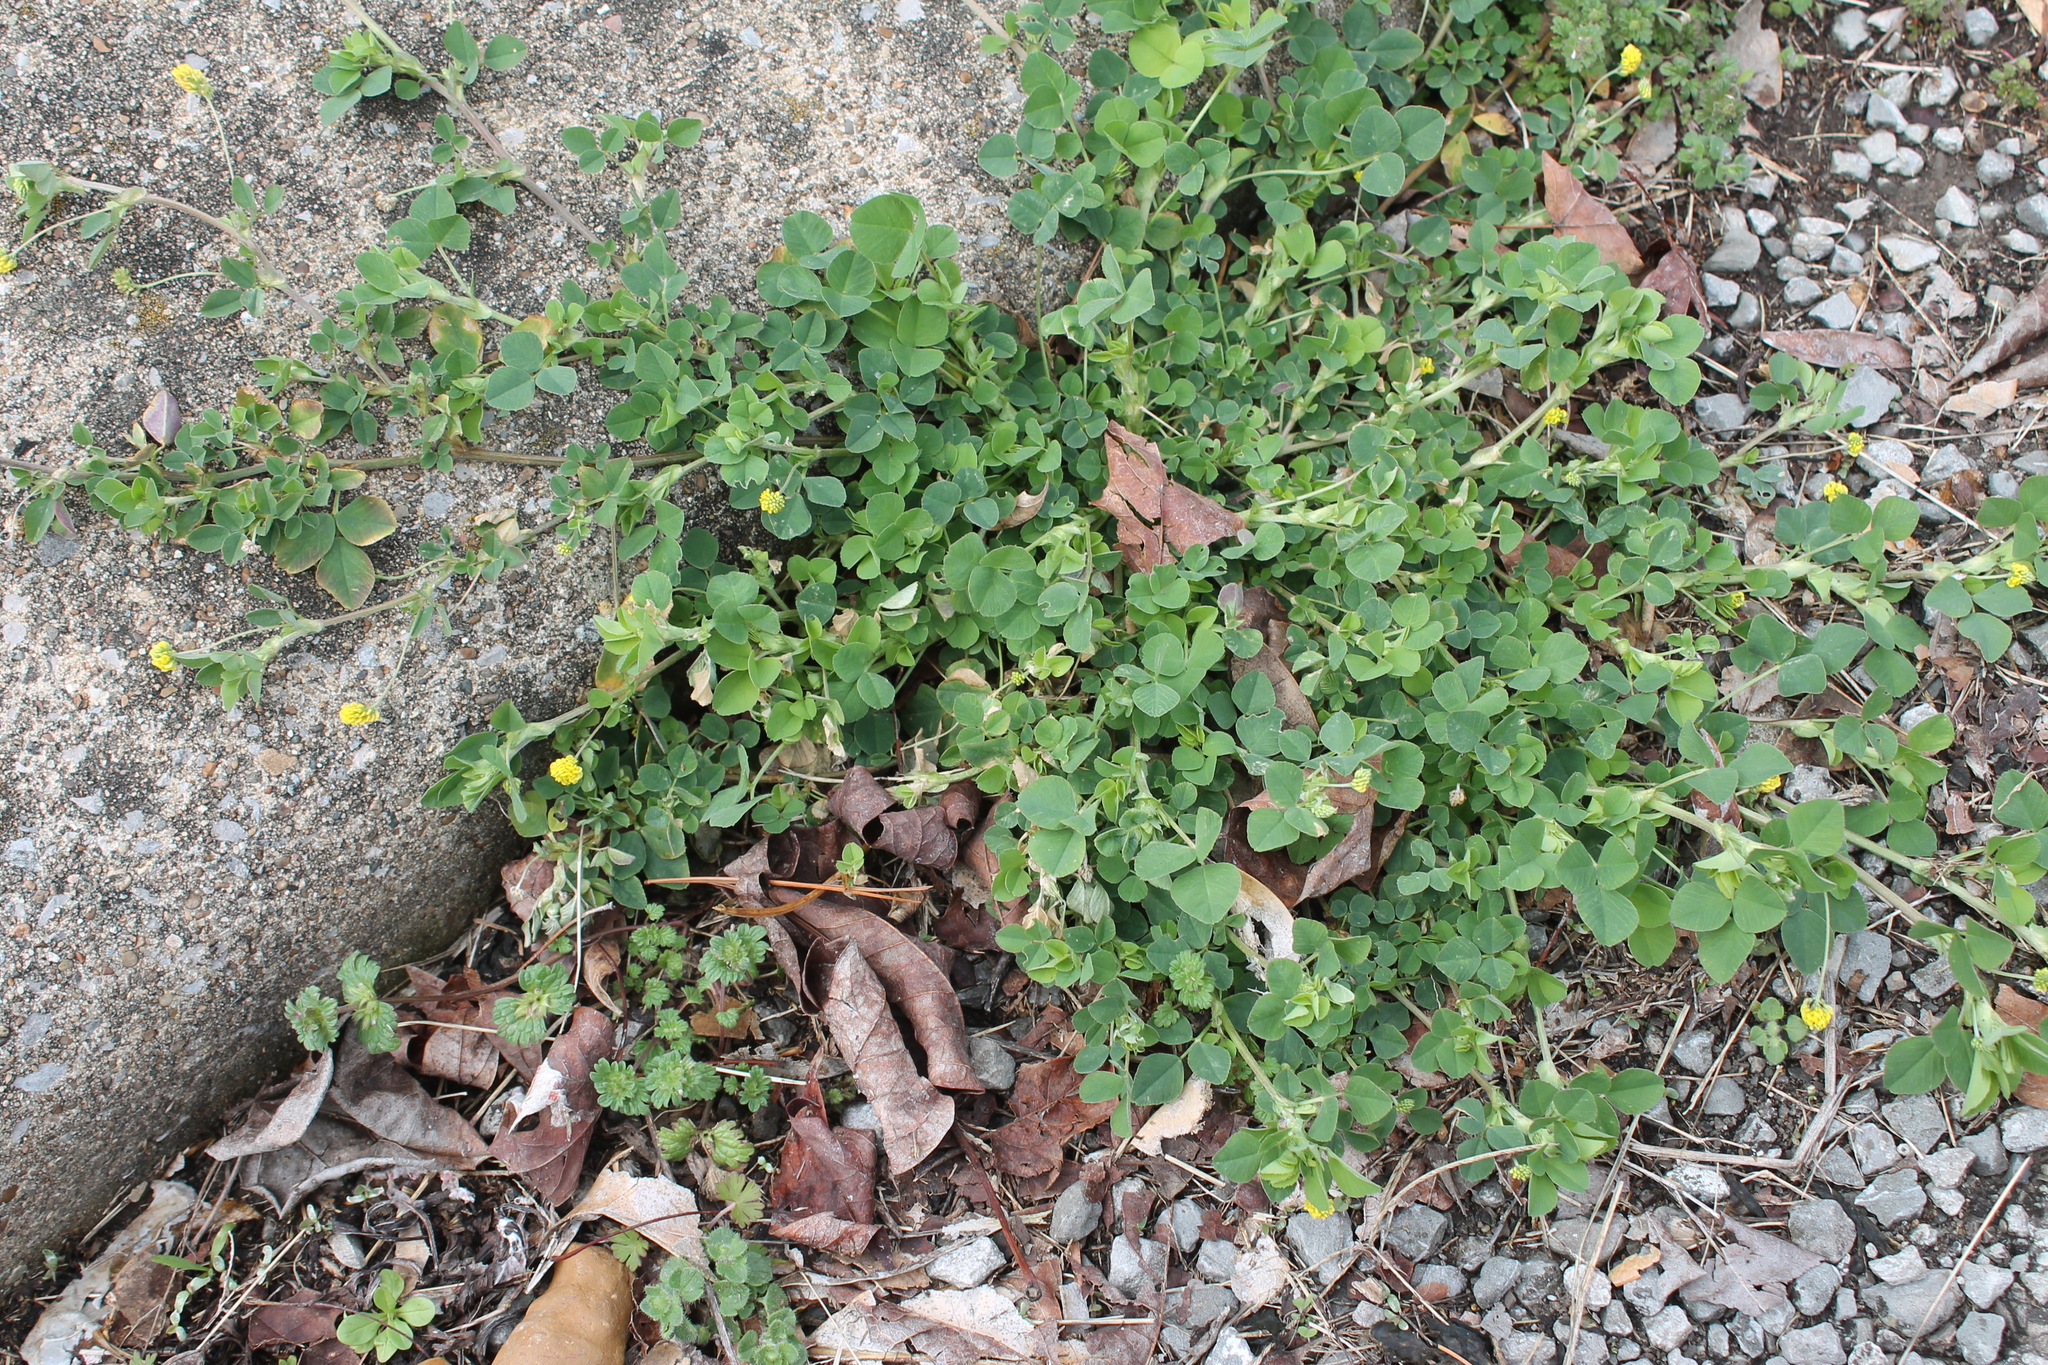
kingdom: Plantae
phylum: Tracheophyta
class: Magnoliopsida
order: Fabales
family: Fabaceae
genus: Medicago
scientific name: Medicago lupulina
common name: Black medick
